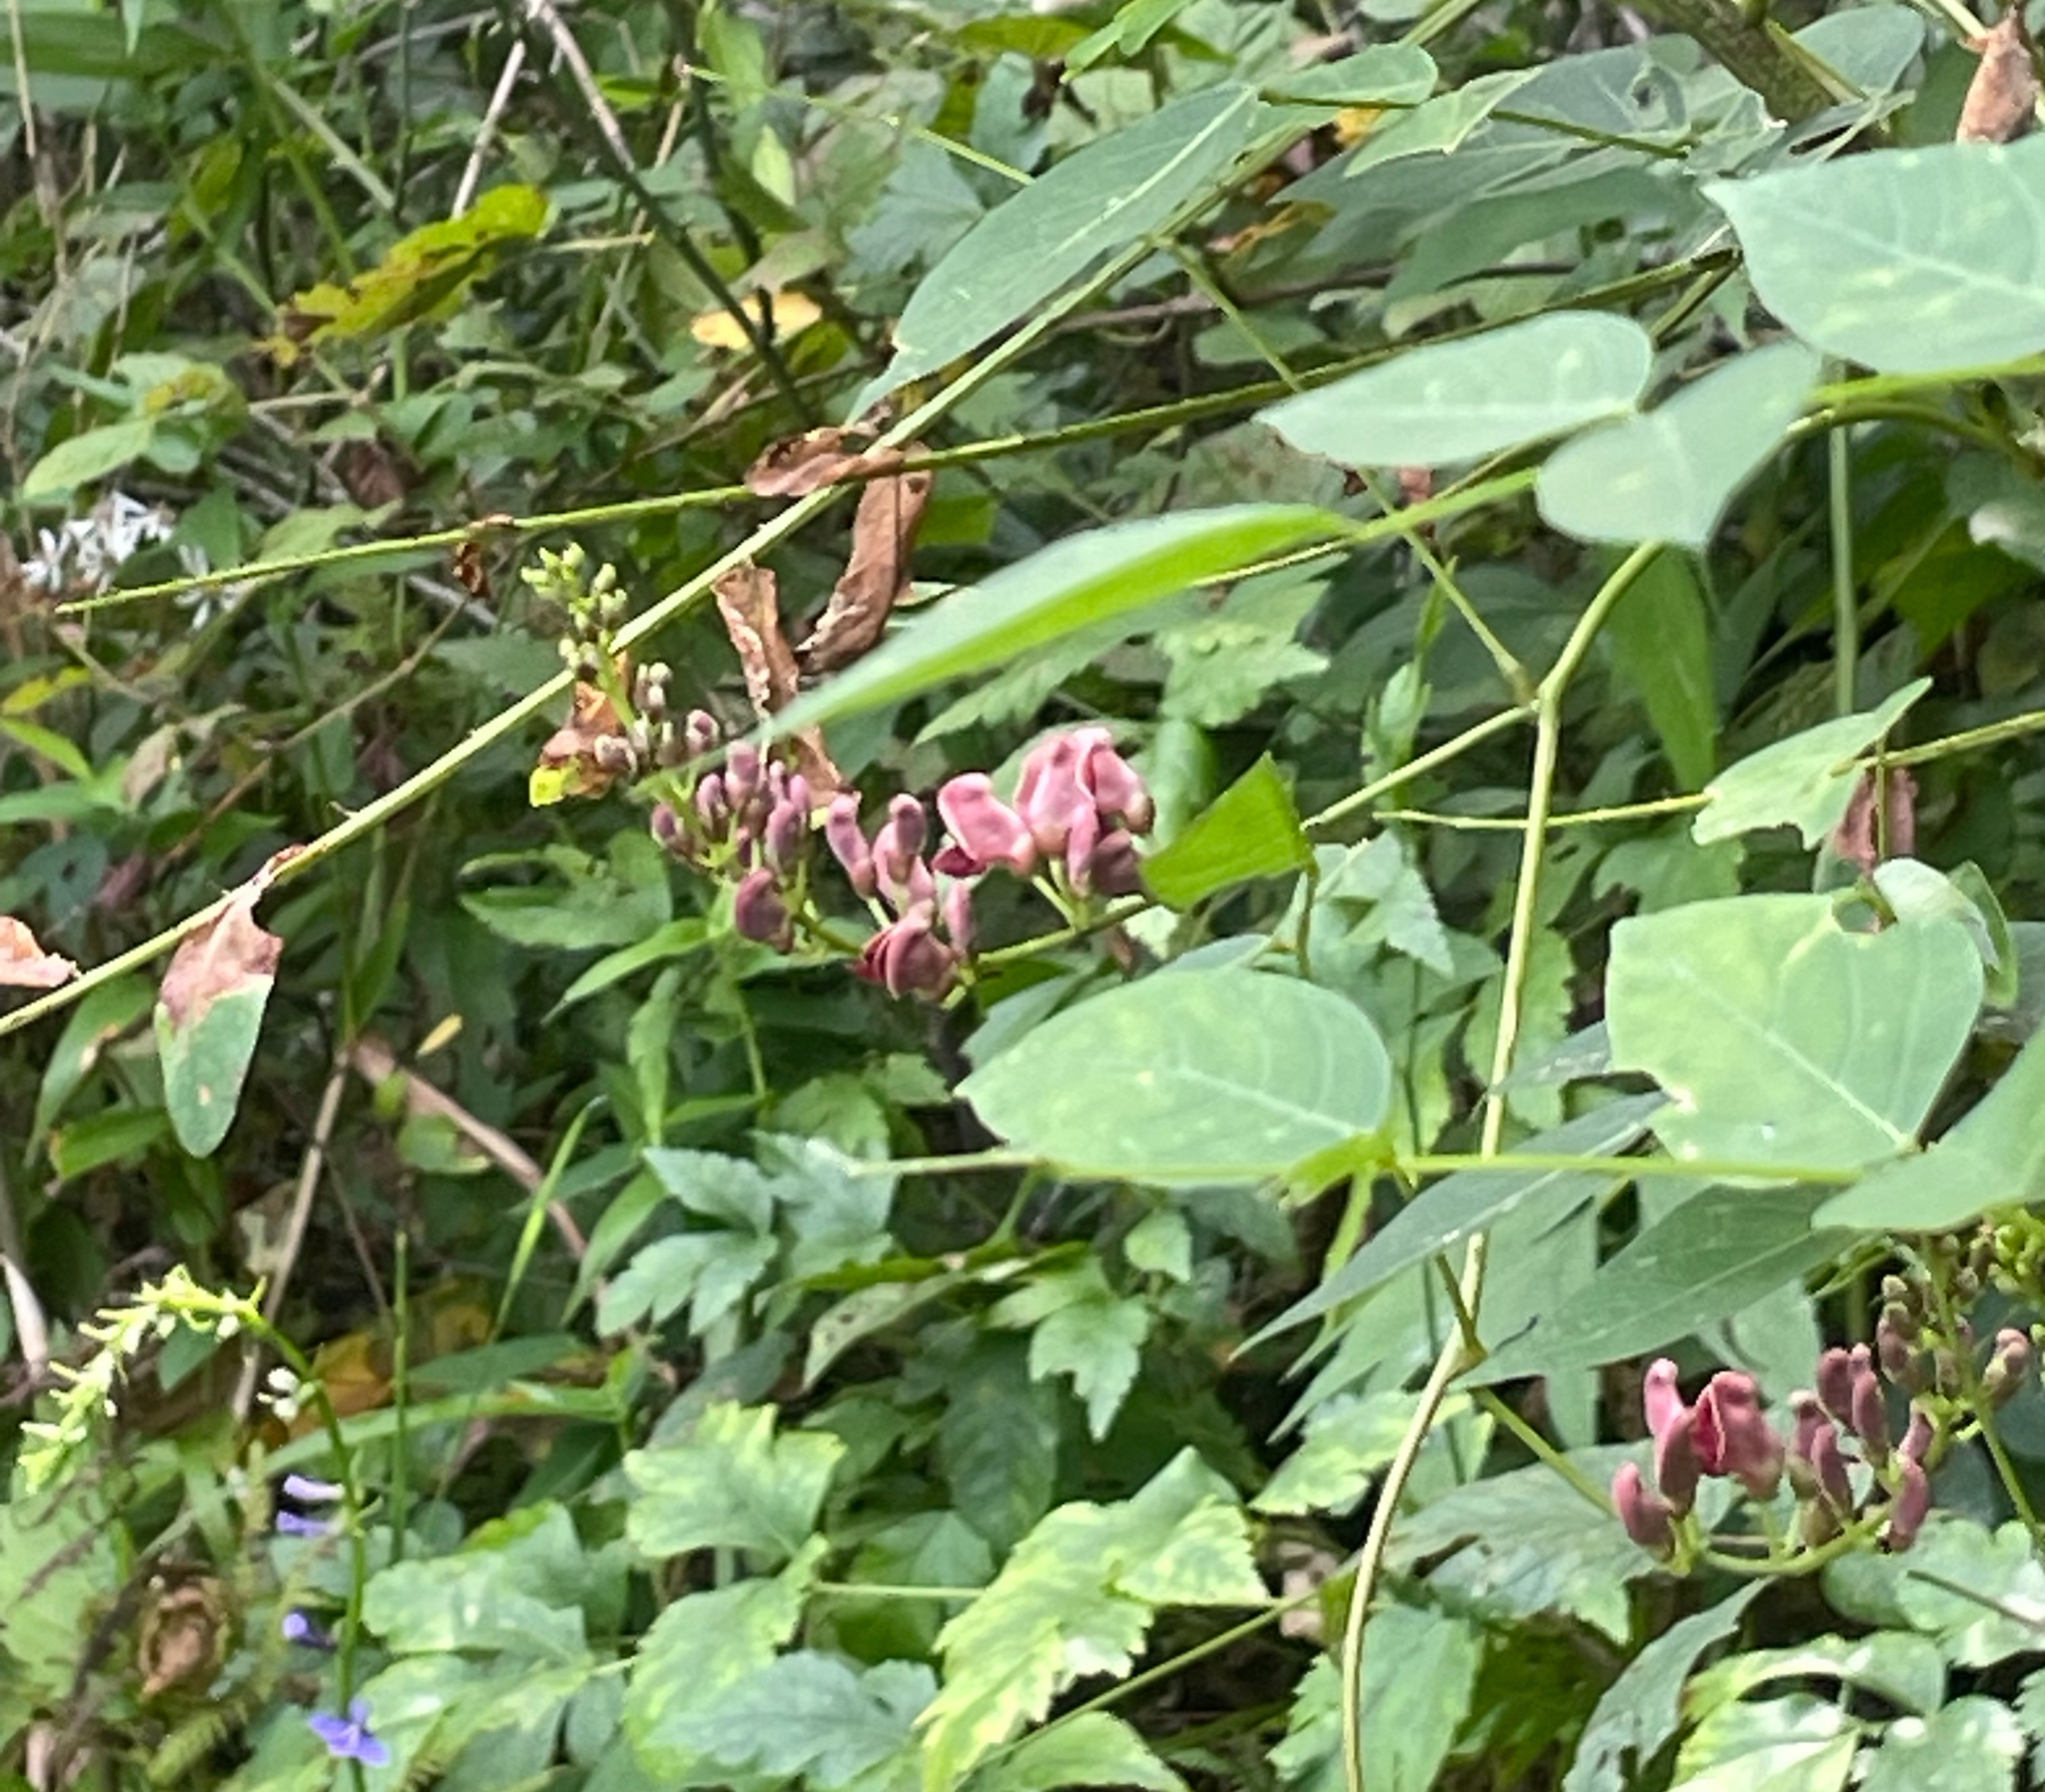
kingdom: Plantae
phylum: Tracheophyta
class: Magnoliopsida
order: Fabales
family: Fabaceae
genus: Apios
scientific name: Apios americana
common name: American potato-bean
